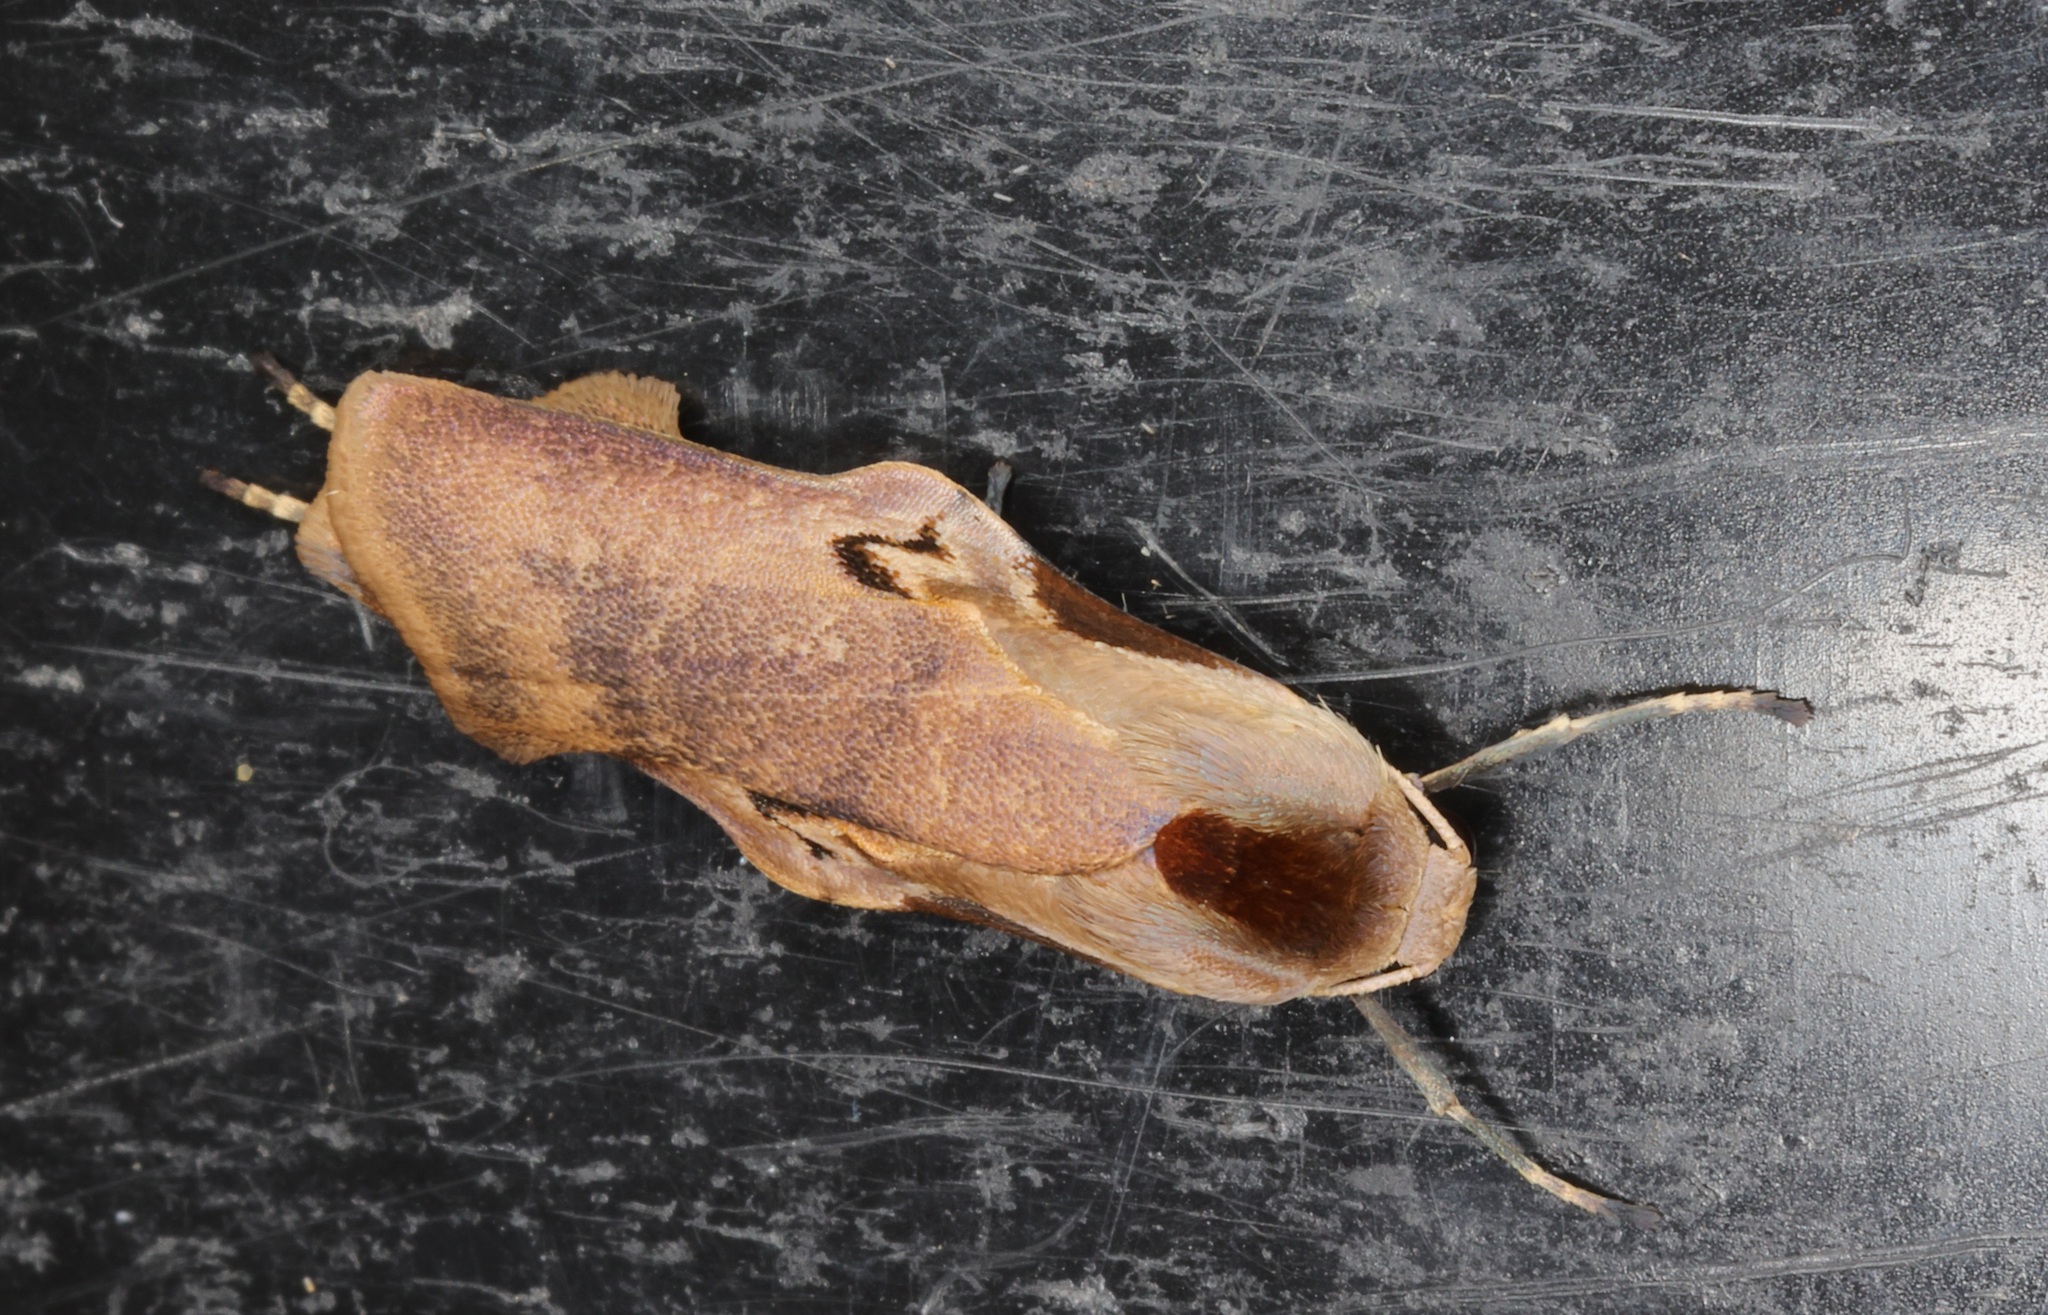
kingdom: Animalia
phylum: Arthropoda
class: Insecta
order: Lepidoptera
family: Erebidae
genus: Teulisna
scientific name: Teulisna tumida
